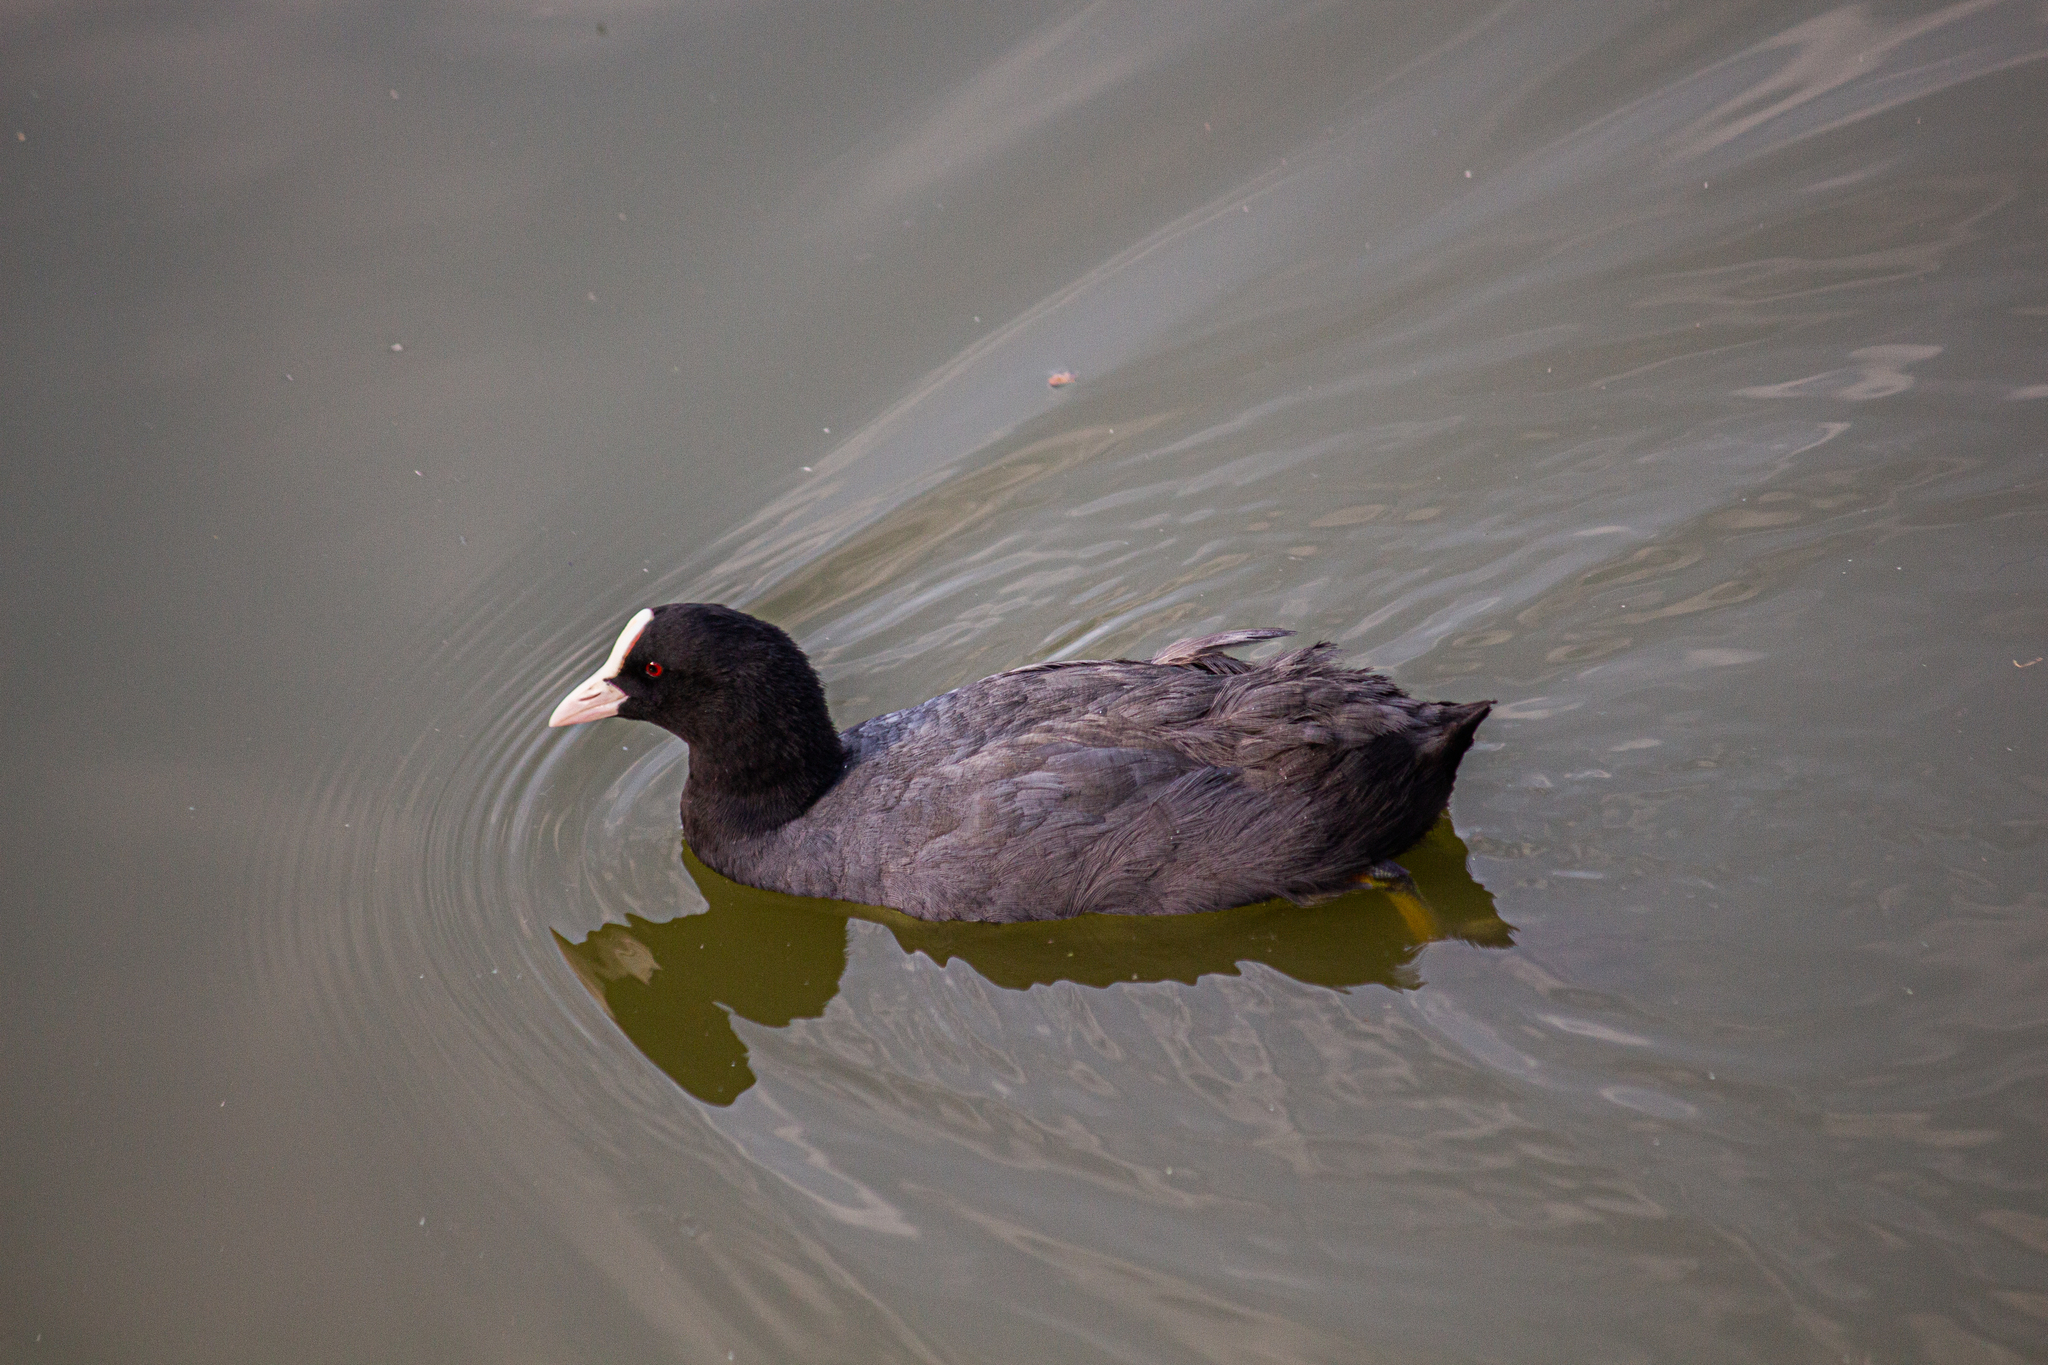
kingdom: Animalia
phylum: Chordata
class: Aves
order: Gruiformes
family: Rallidae
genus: Fulica
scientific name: Fulica atra
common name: Eurasian coot
